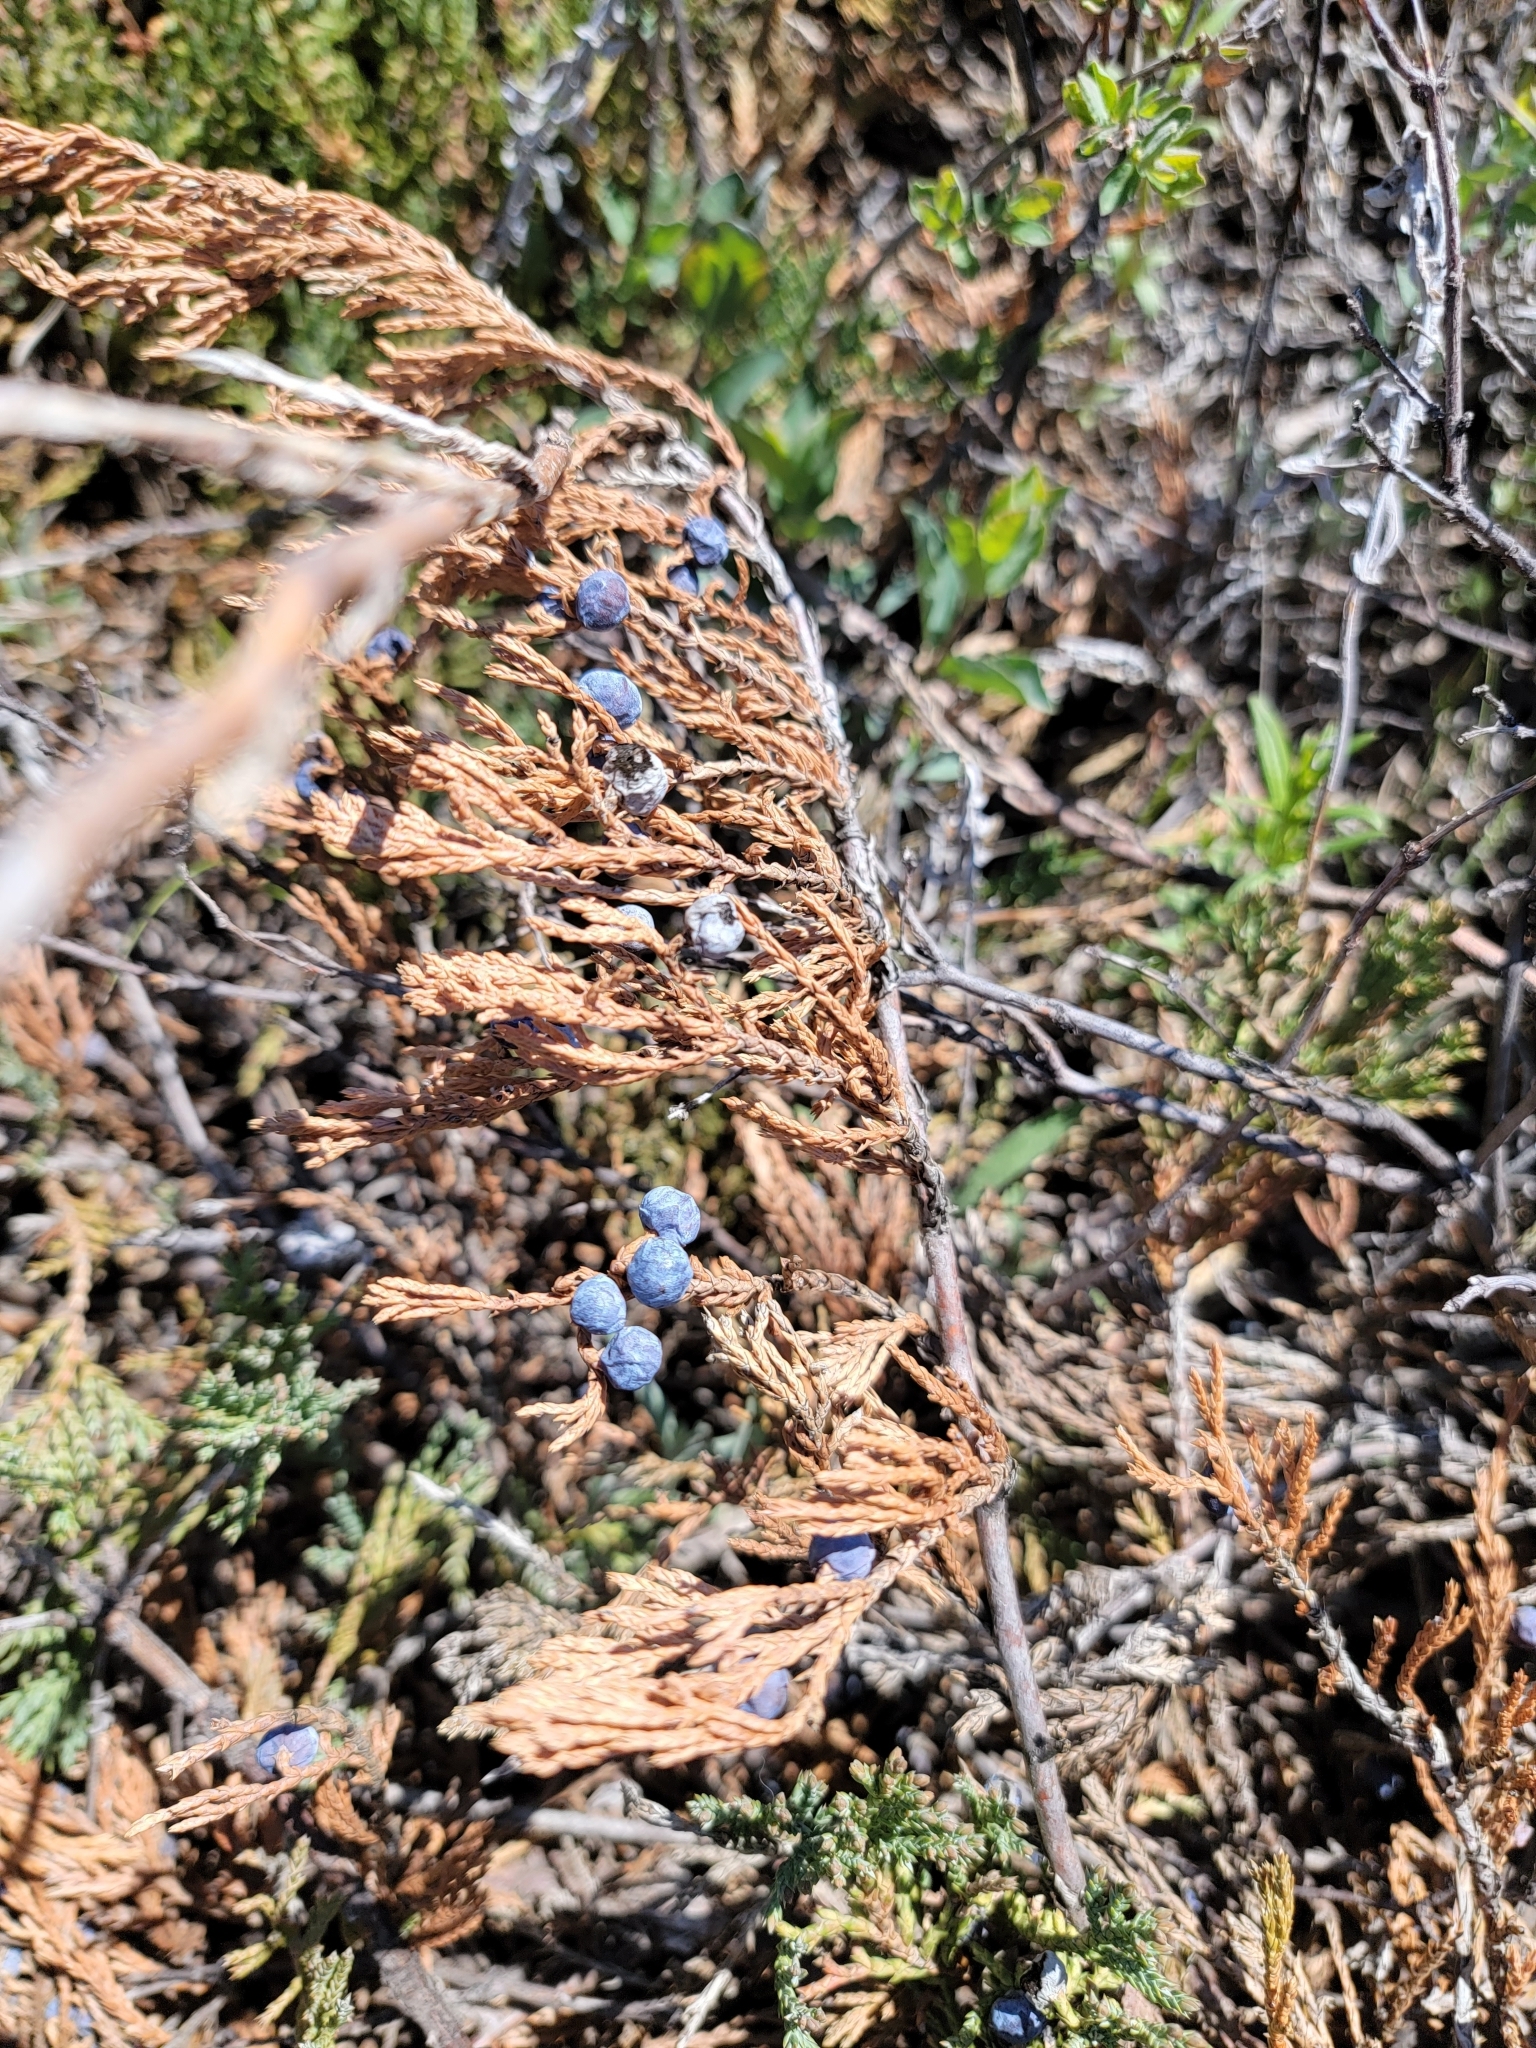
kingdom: Plantae
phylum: Tracheophyta
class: Pinopsida
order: Pinales
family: Cupressaceae
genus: Juniperus
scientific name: Juniperus horizontalis
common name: Creeping juniper
